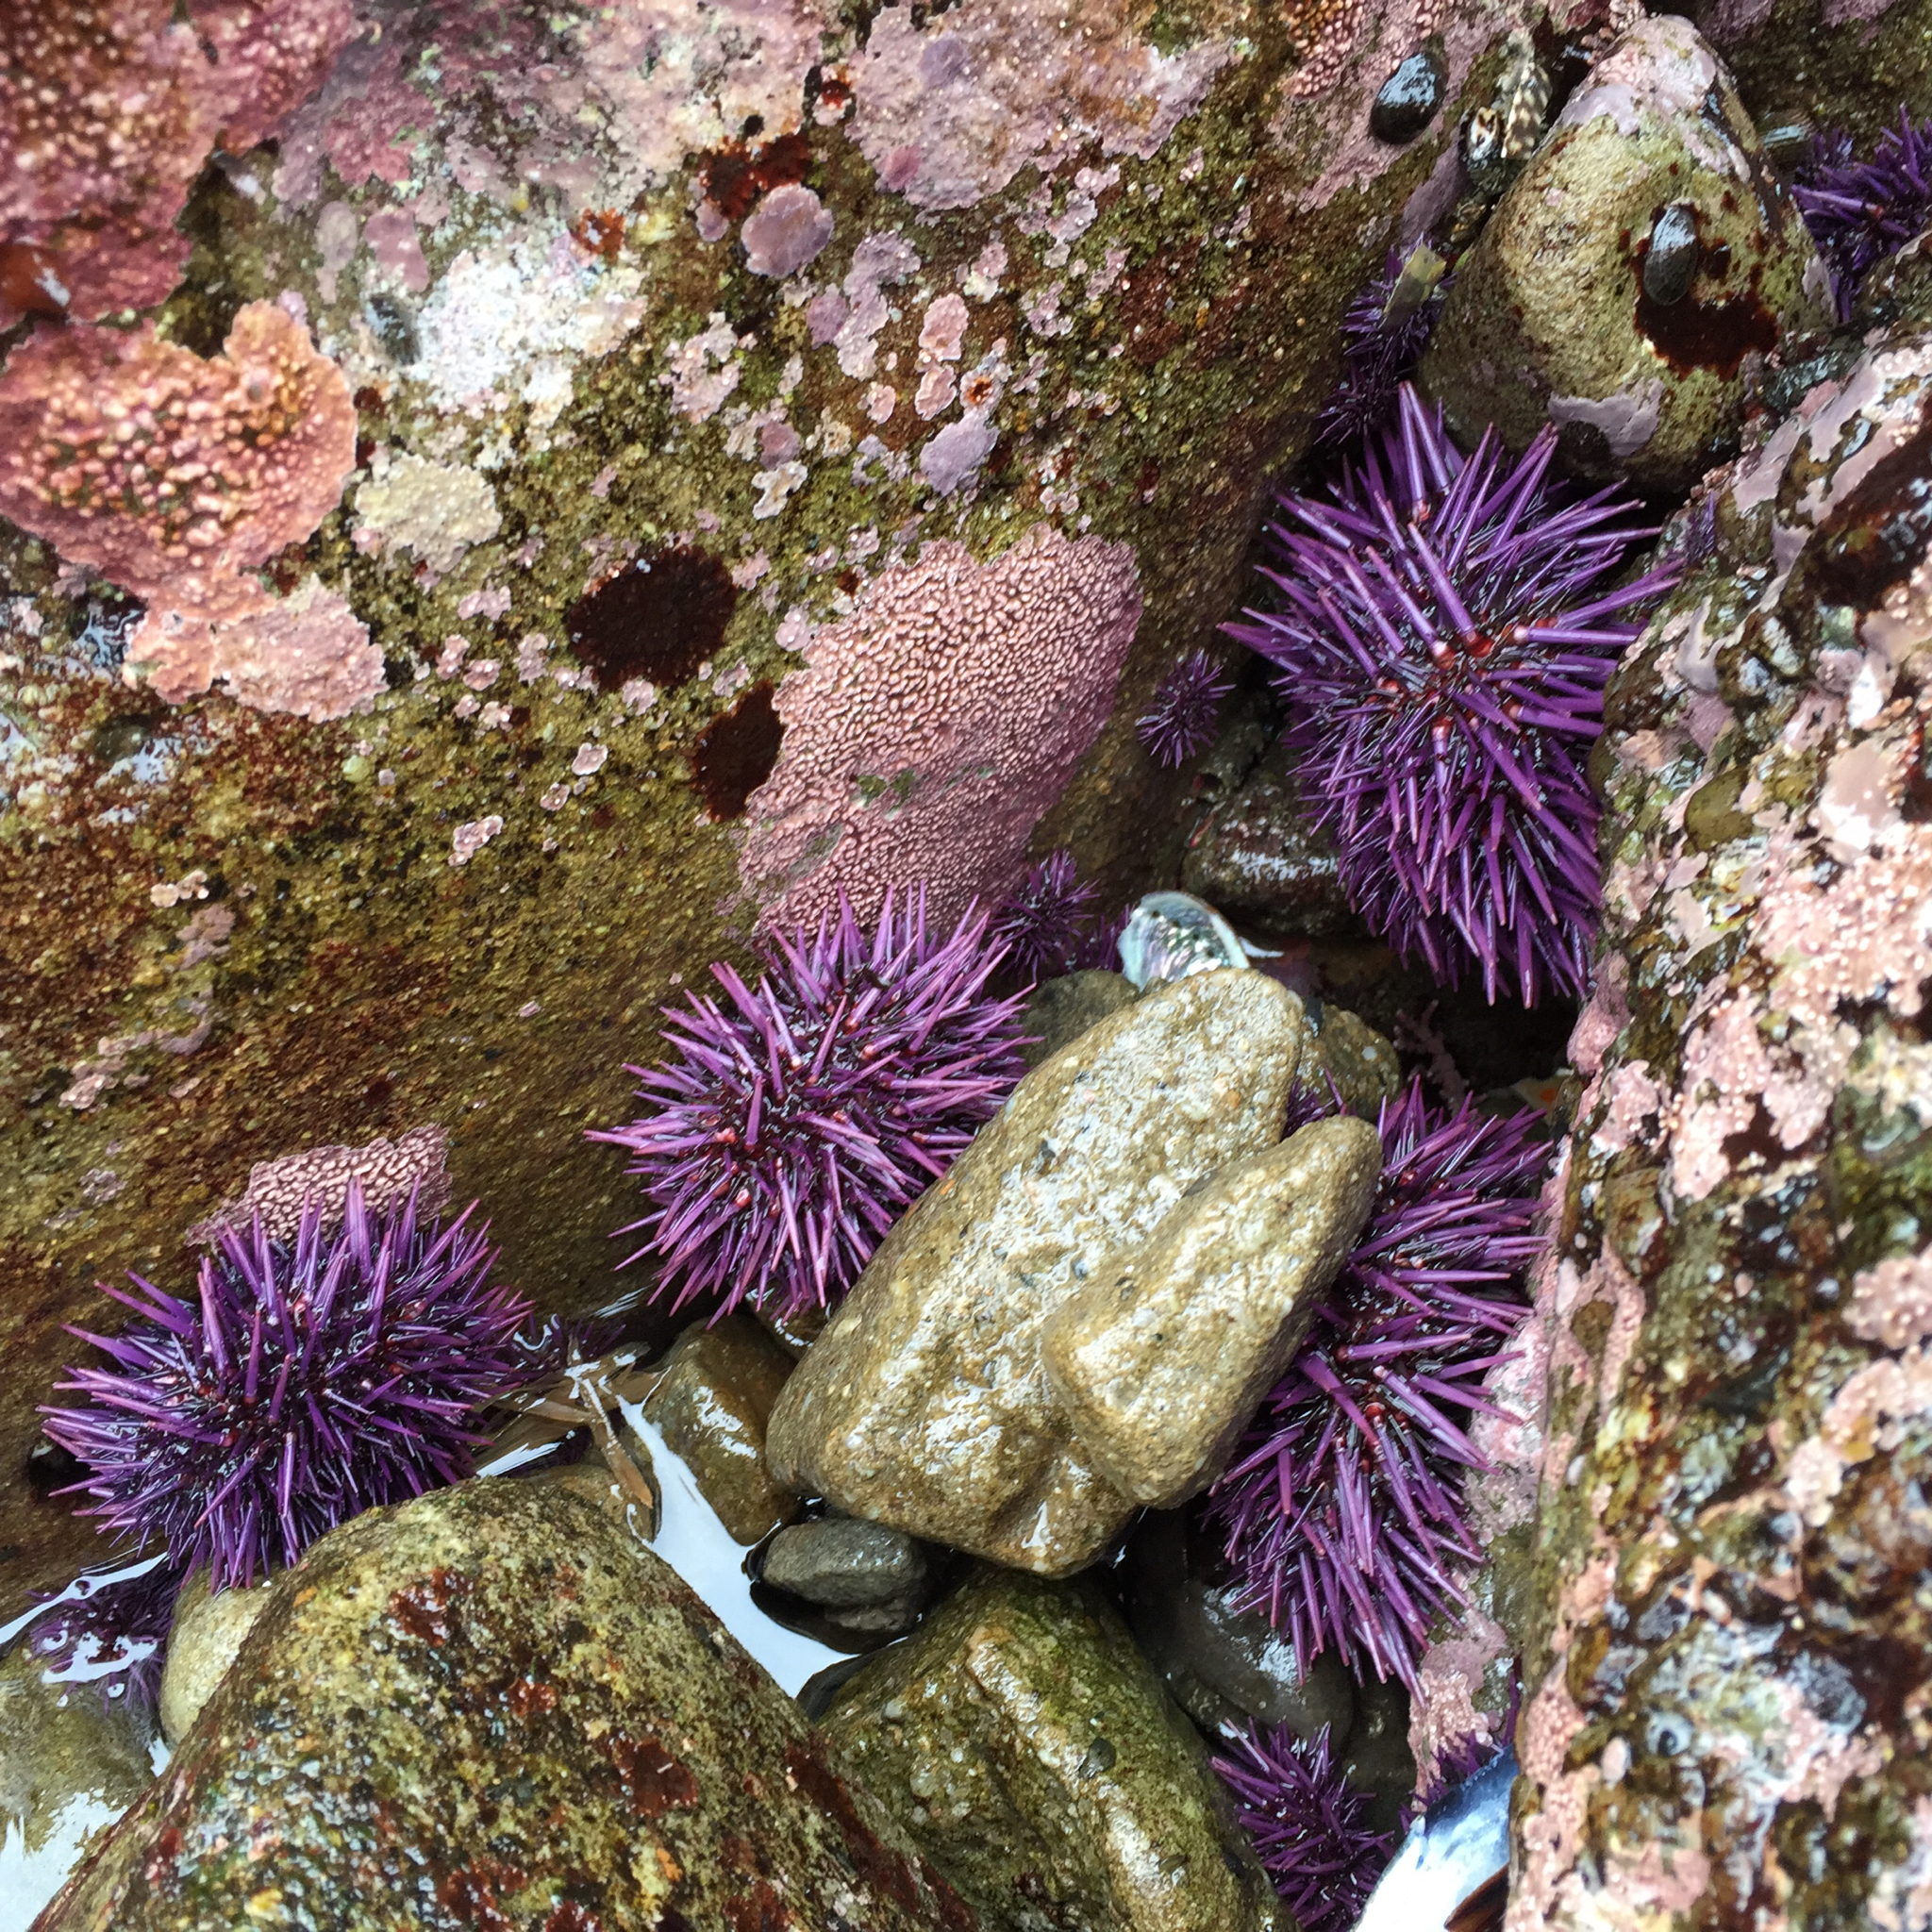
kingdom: Animalia
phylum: Echinodermata
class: Echinoidea
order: Camarodonta
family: Strongylocentrotidae
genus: Strongylocentrotus
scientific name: Strongylocentrotus purpuratus
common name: Purple sea urchin
